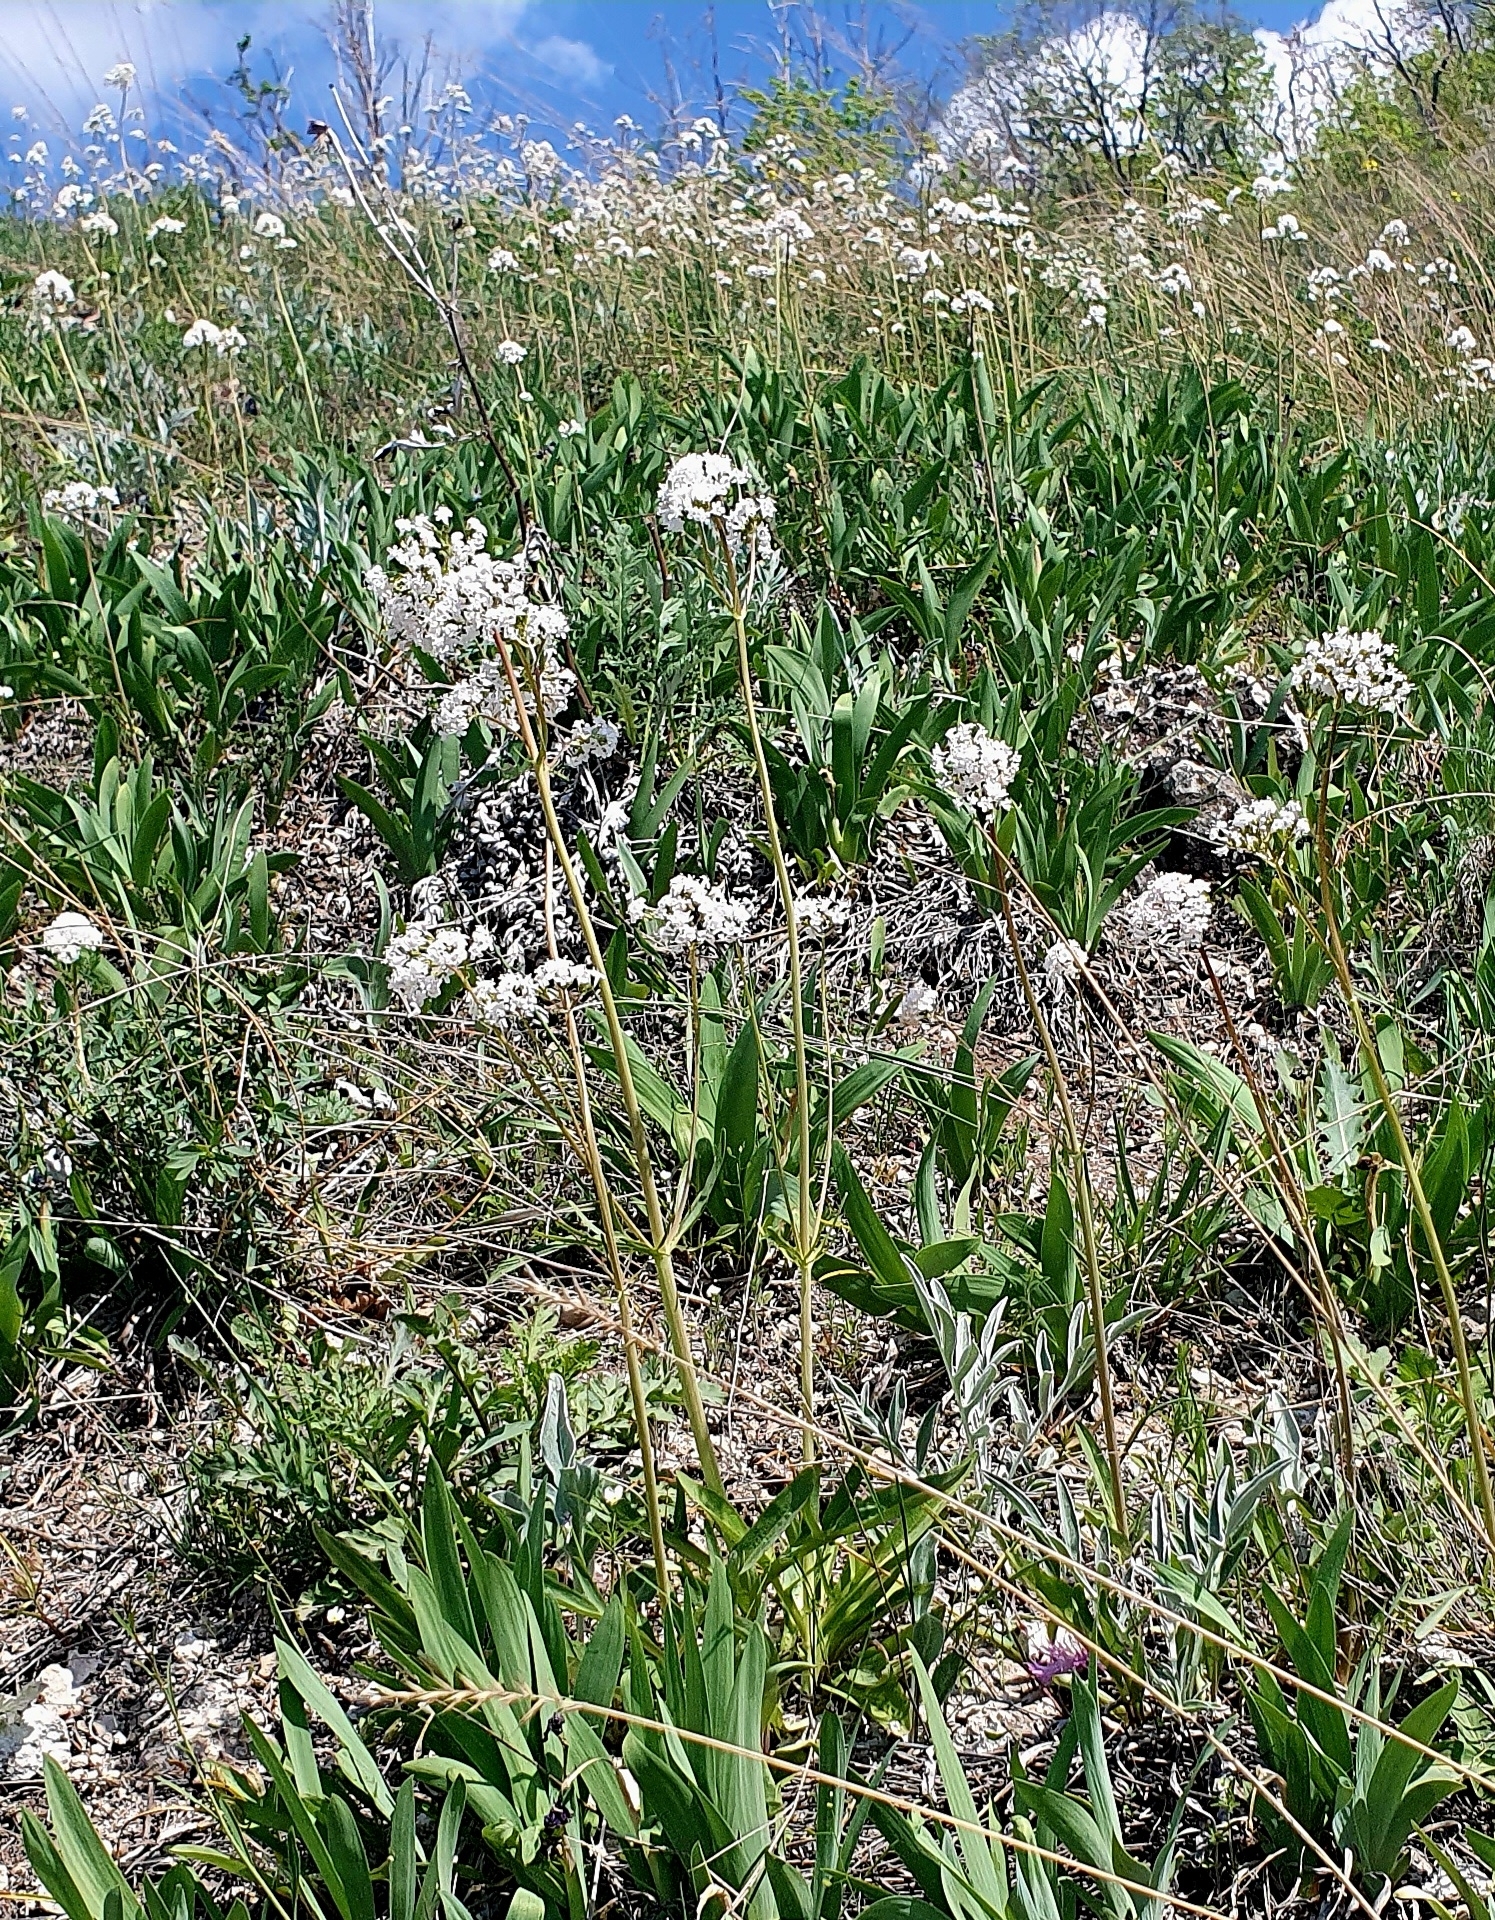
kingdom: Plantae
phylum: Tracheophyta
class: Magnoliopsida
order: Dipsacales
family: Caprifoliaceae
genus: Valeriana
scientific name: Valeriana tuberosa
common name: Tuberous valerian
